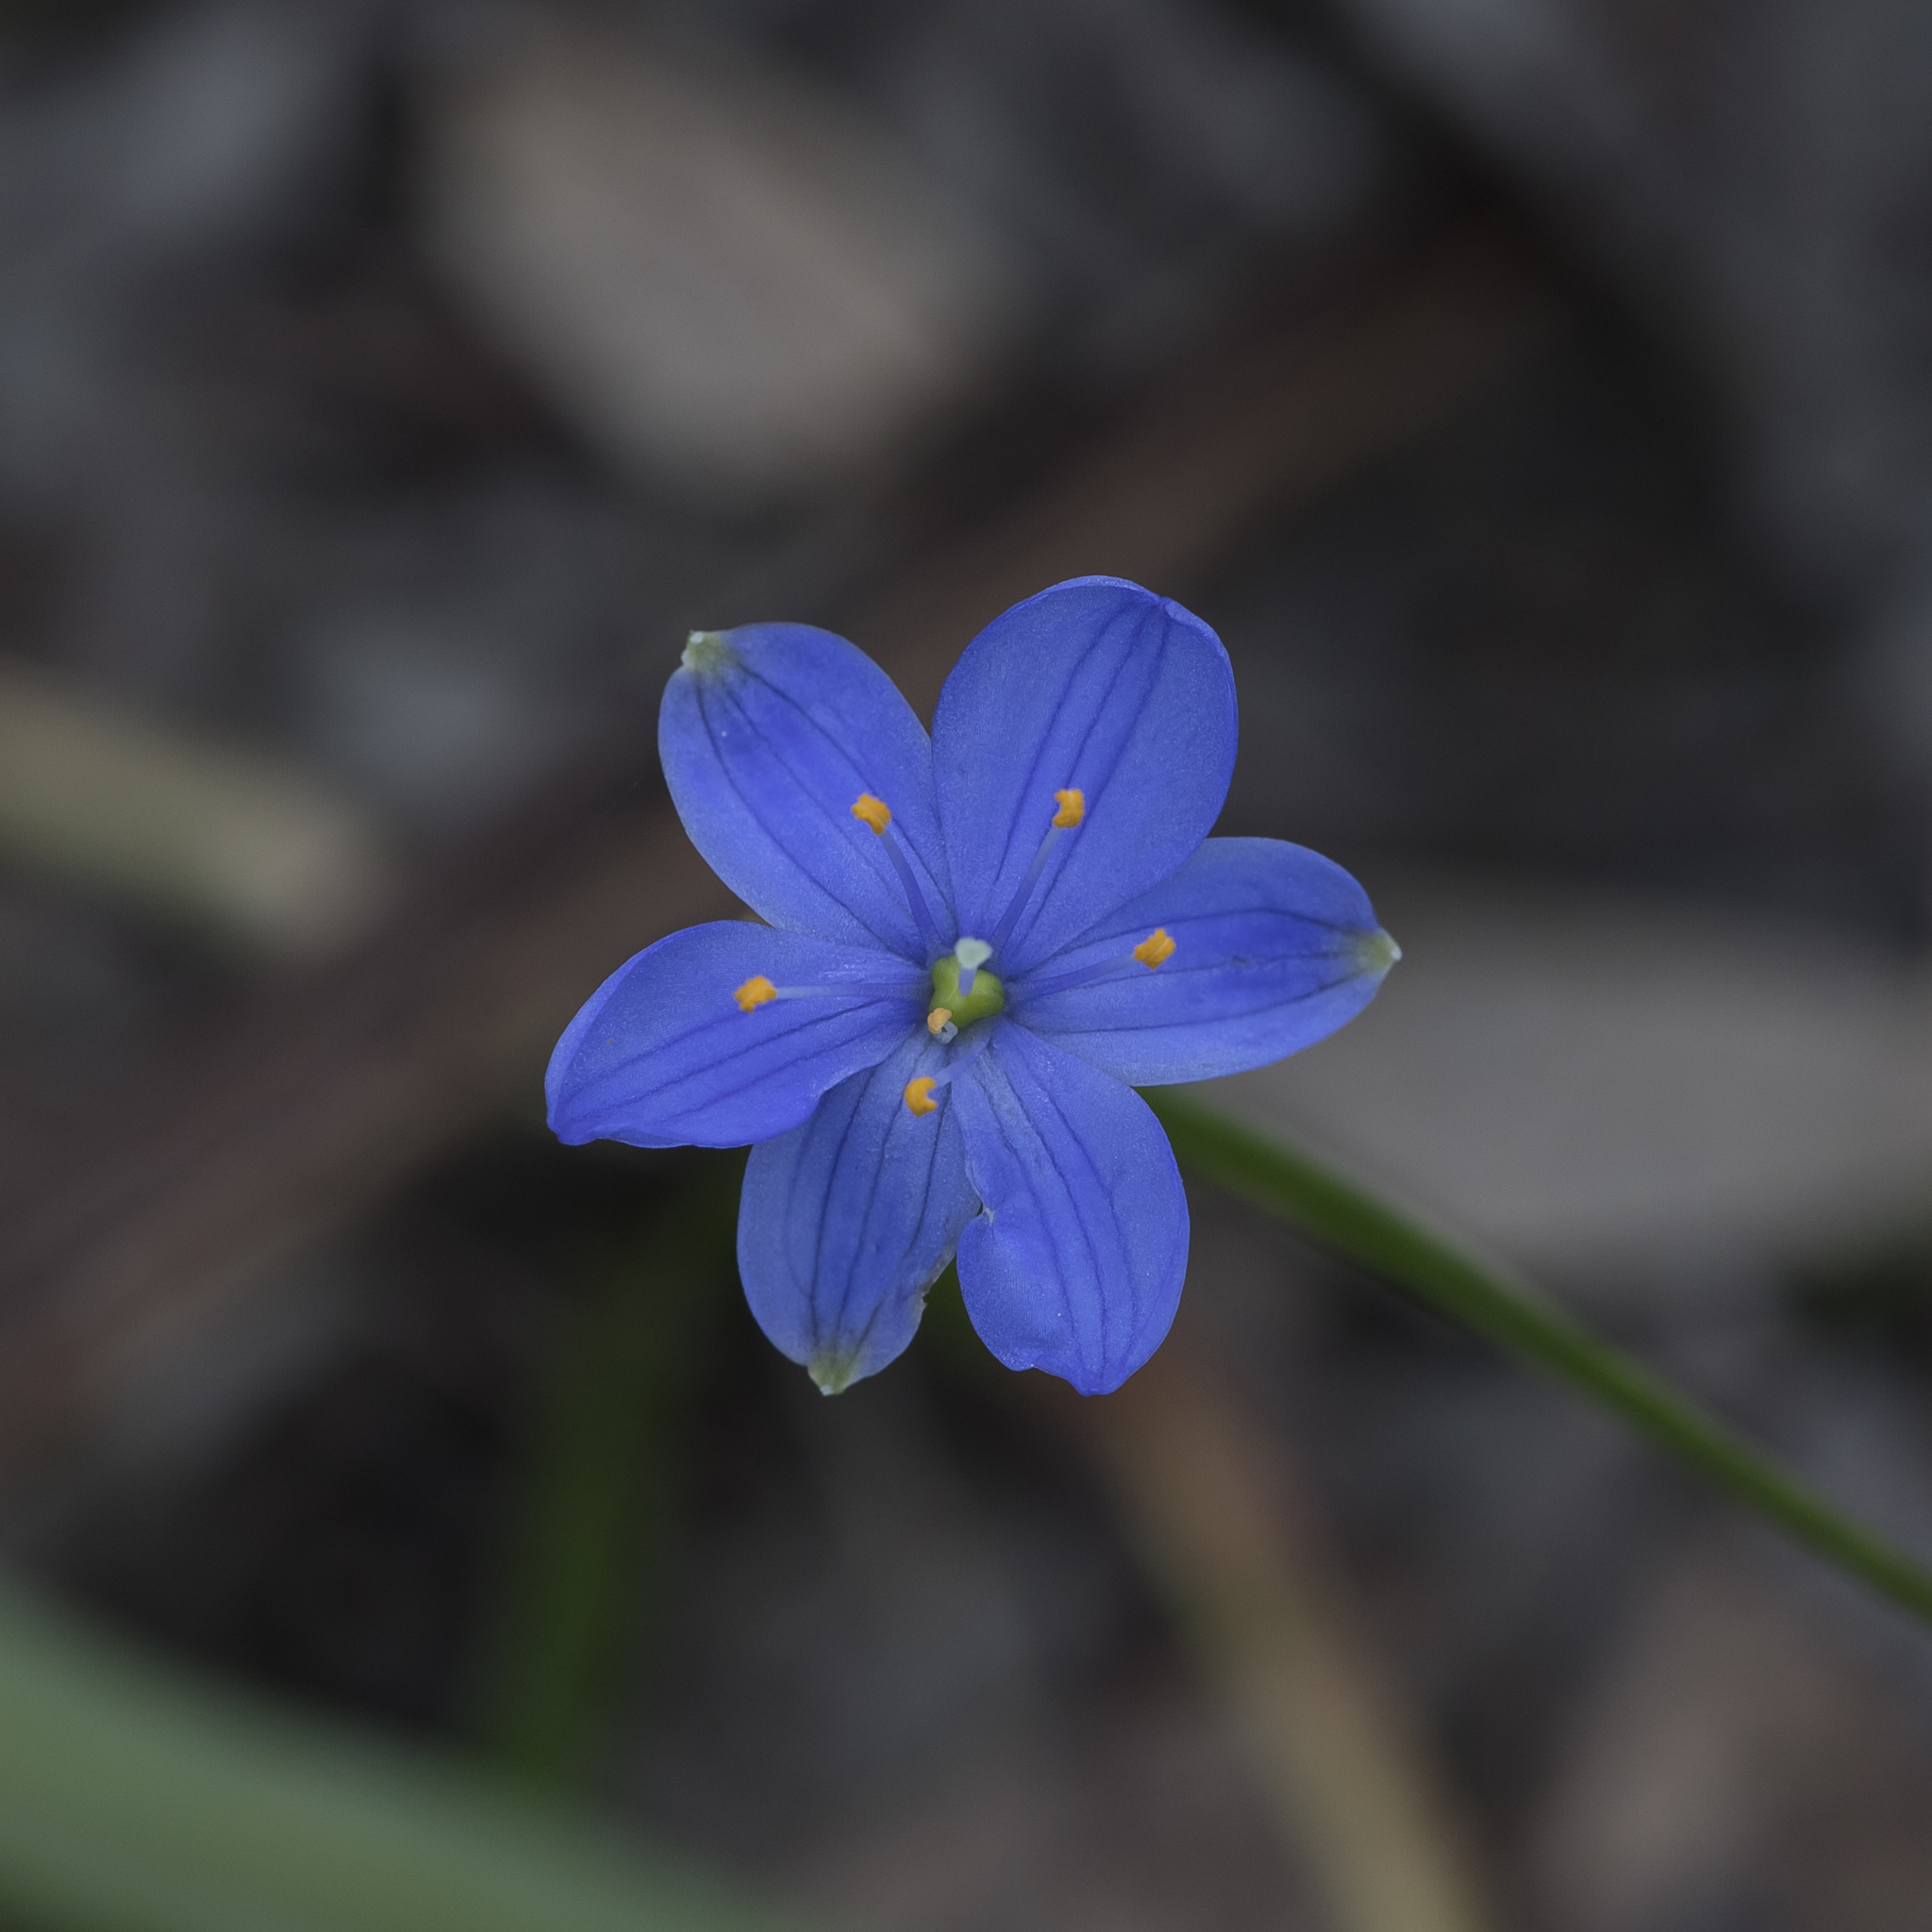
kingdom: Plantae
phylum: Tracheophyta
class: Liliopsida
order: Asparagales
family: Asphodelaceae
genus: Chamaescilla
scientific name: Chamaescilla corymbosa
